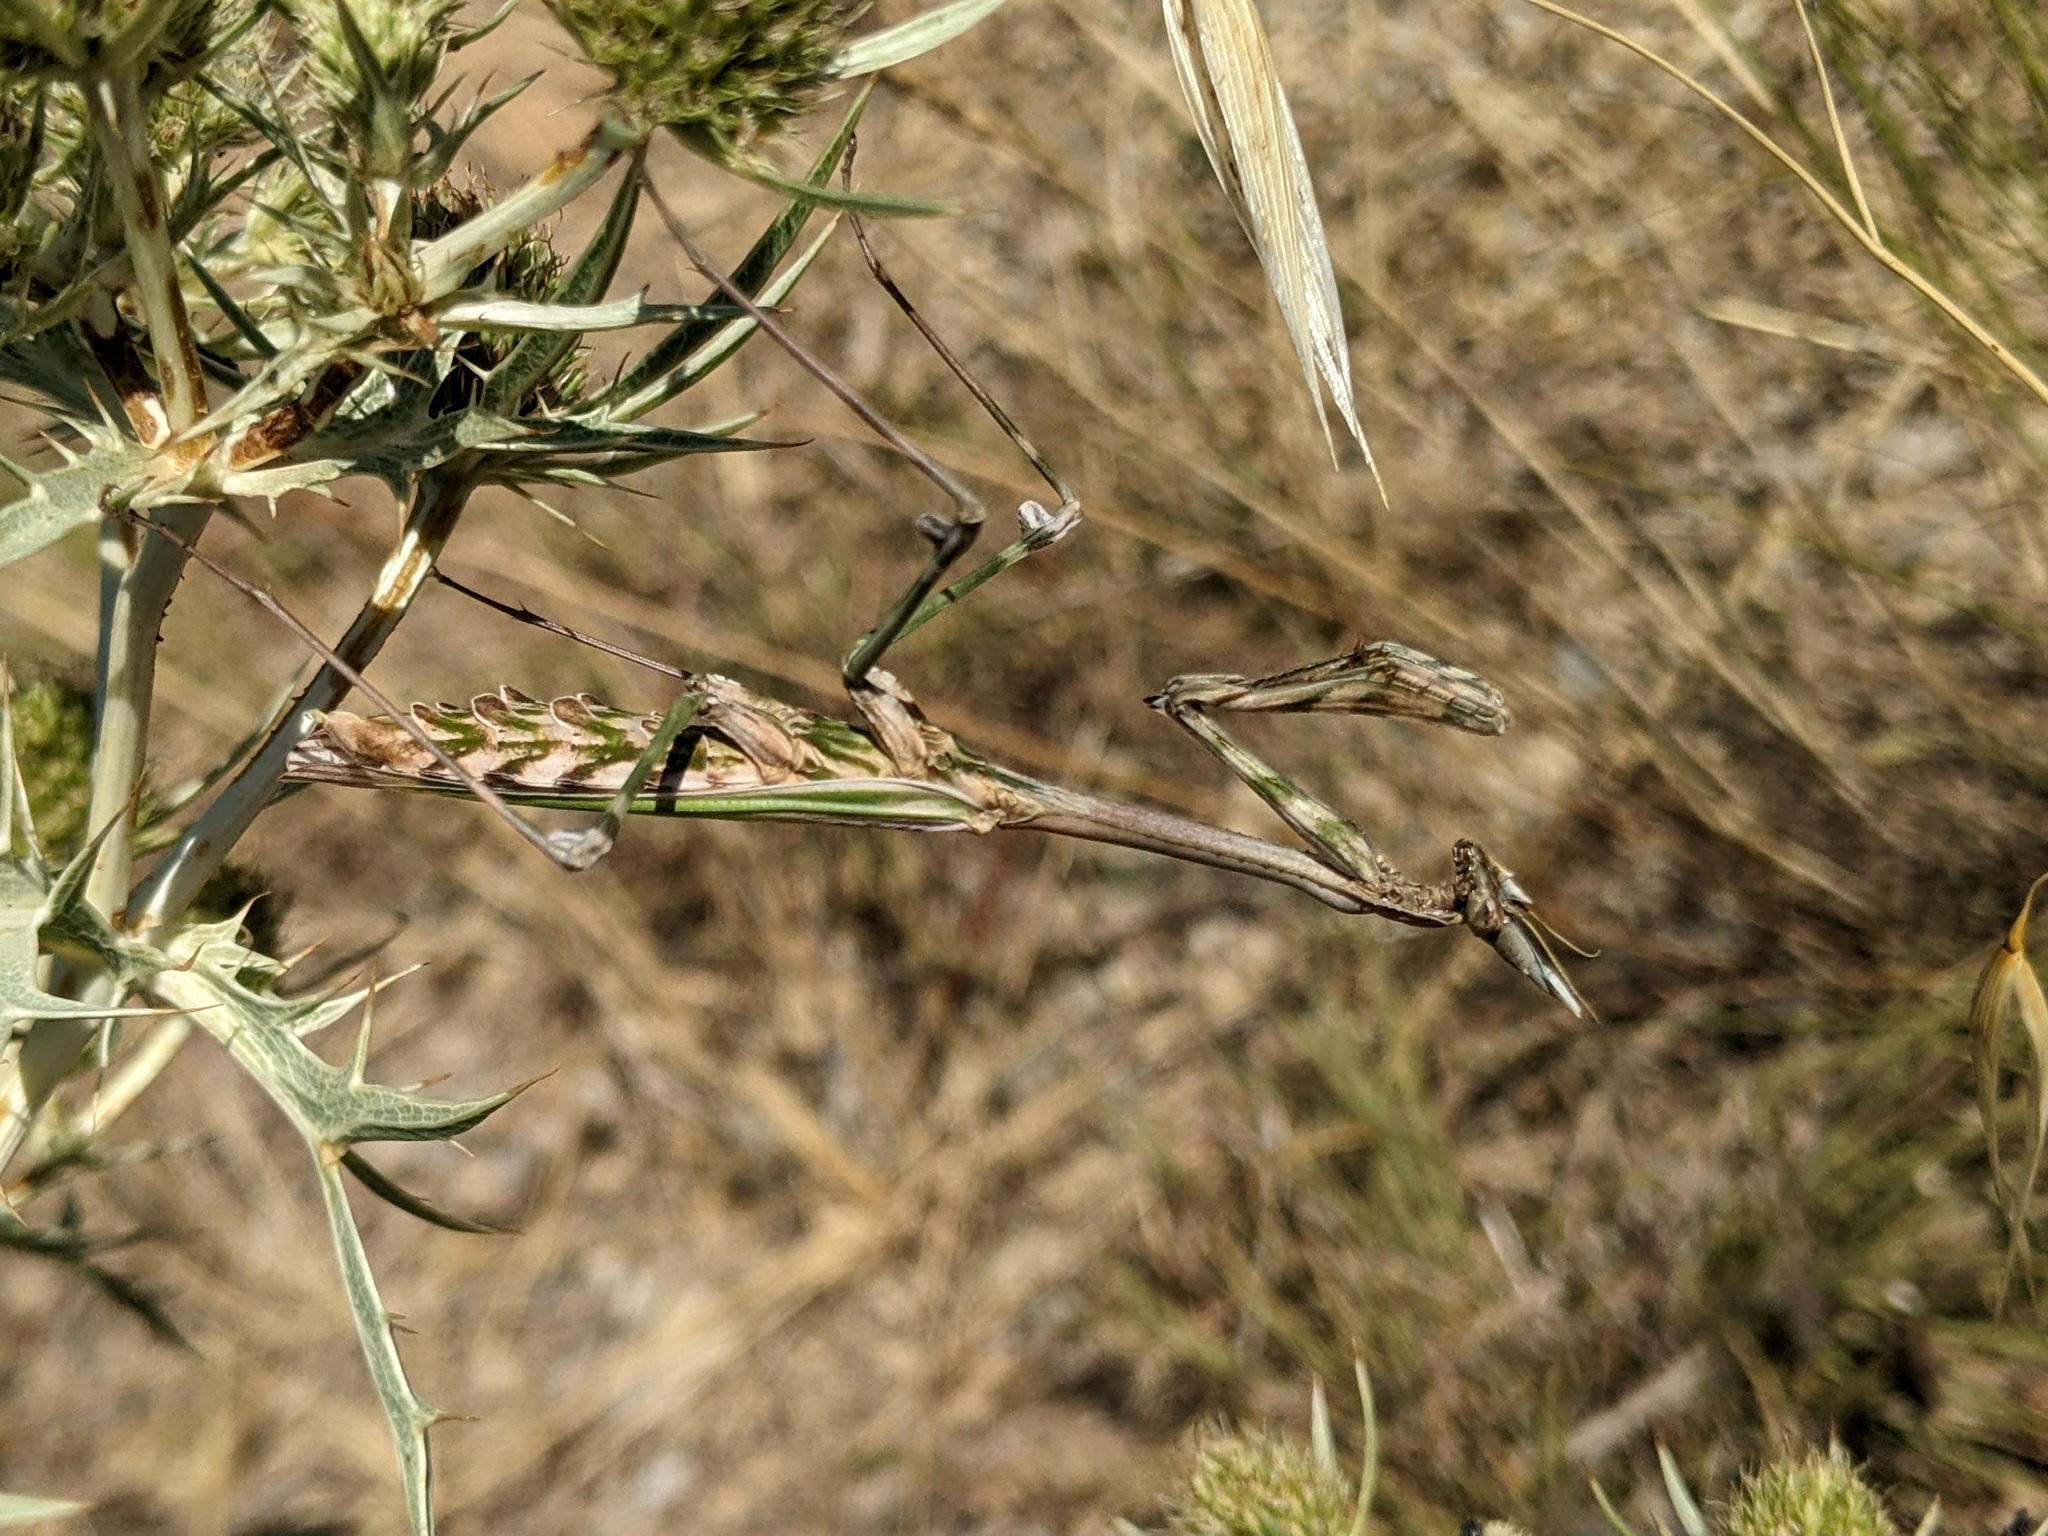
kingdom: Animalia
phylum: Arthropoda
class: Insecta
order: Mantodea
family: Empusidae
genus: Empusa
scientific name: Empusa pennata
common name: Conehead mantis
